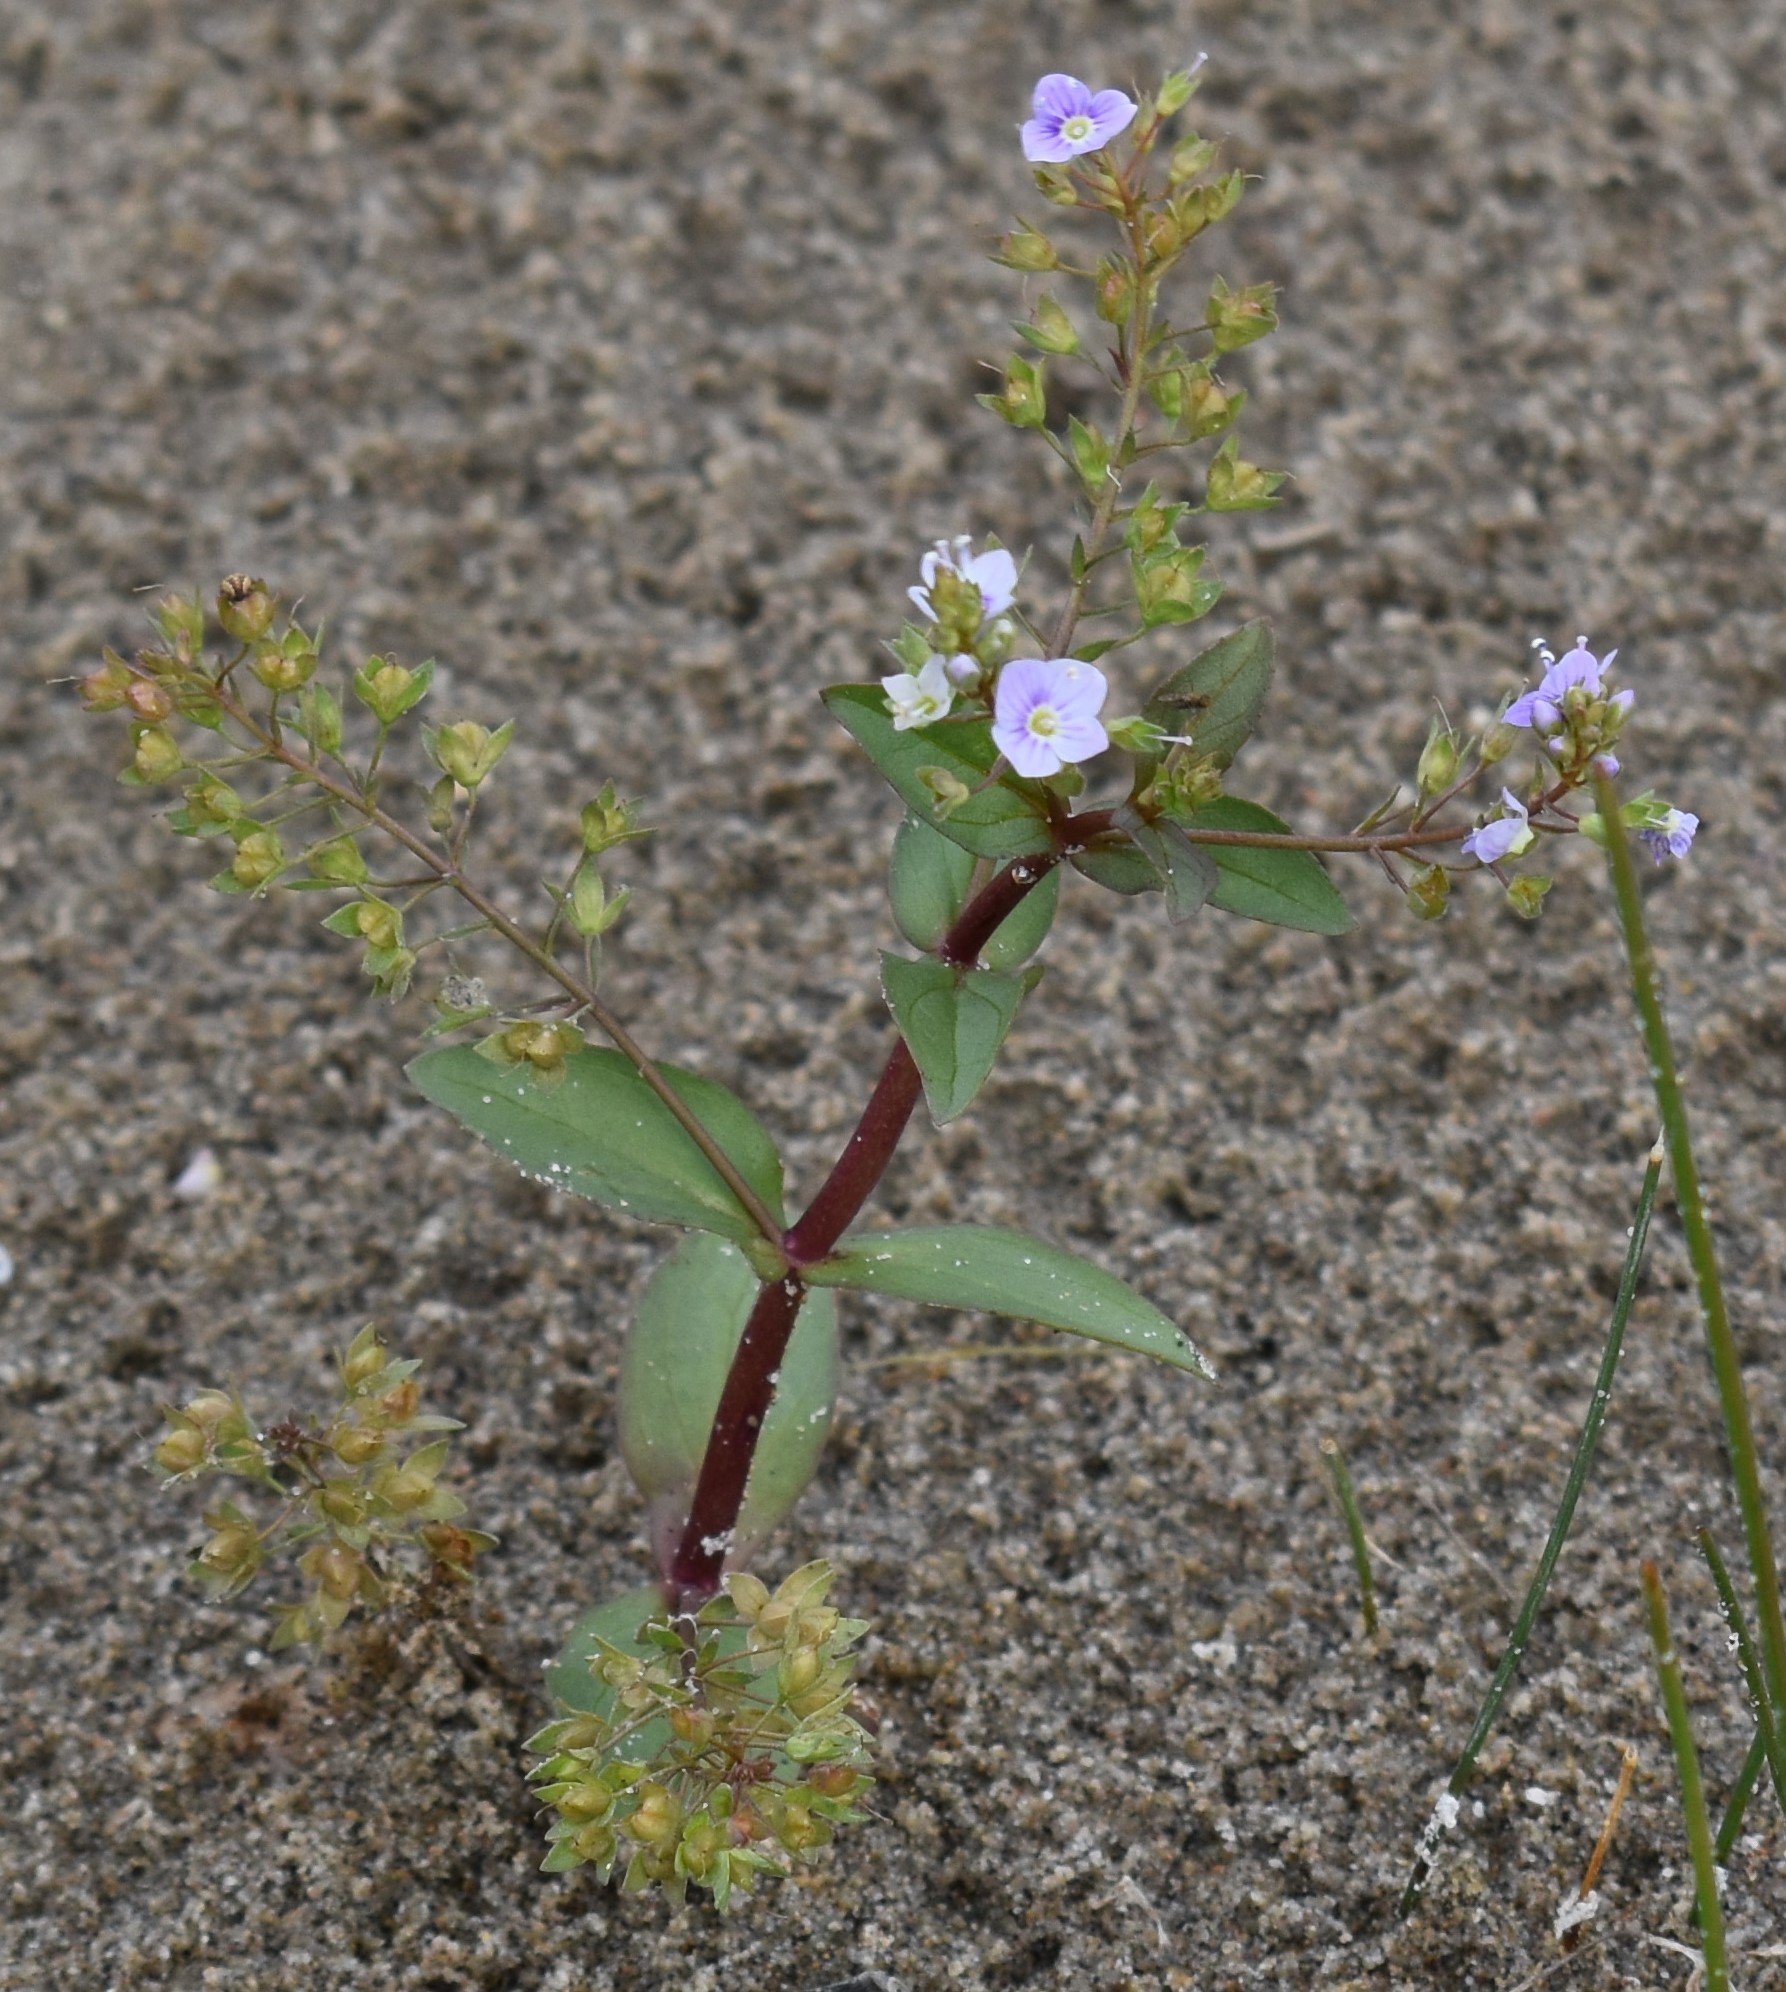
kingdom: Plantae
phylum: Tracheophyta
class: Magnoliopsida
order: Lamiales
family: Plantaginaceae
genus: Veronica
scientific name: Veronica anagallis-aquatica
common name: Water speedwell
